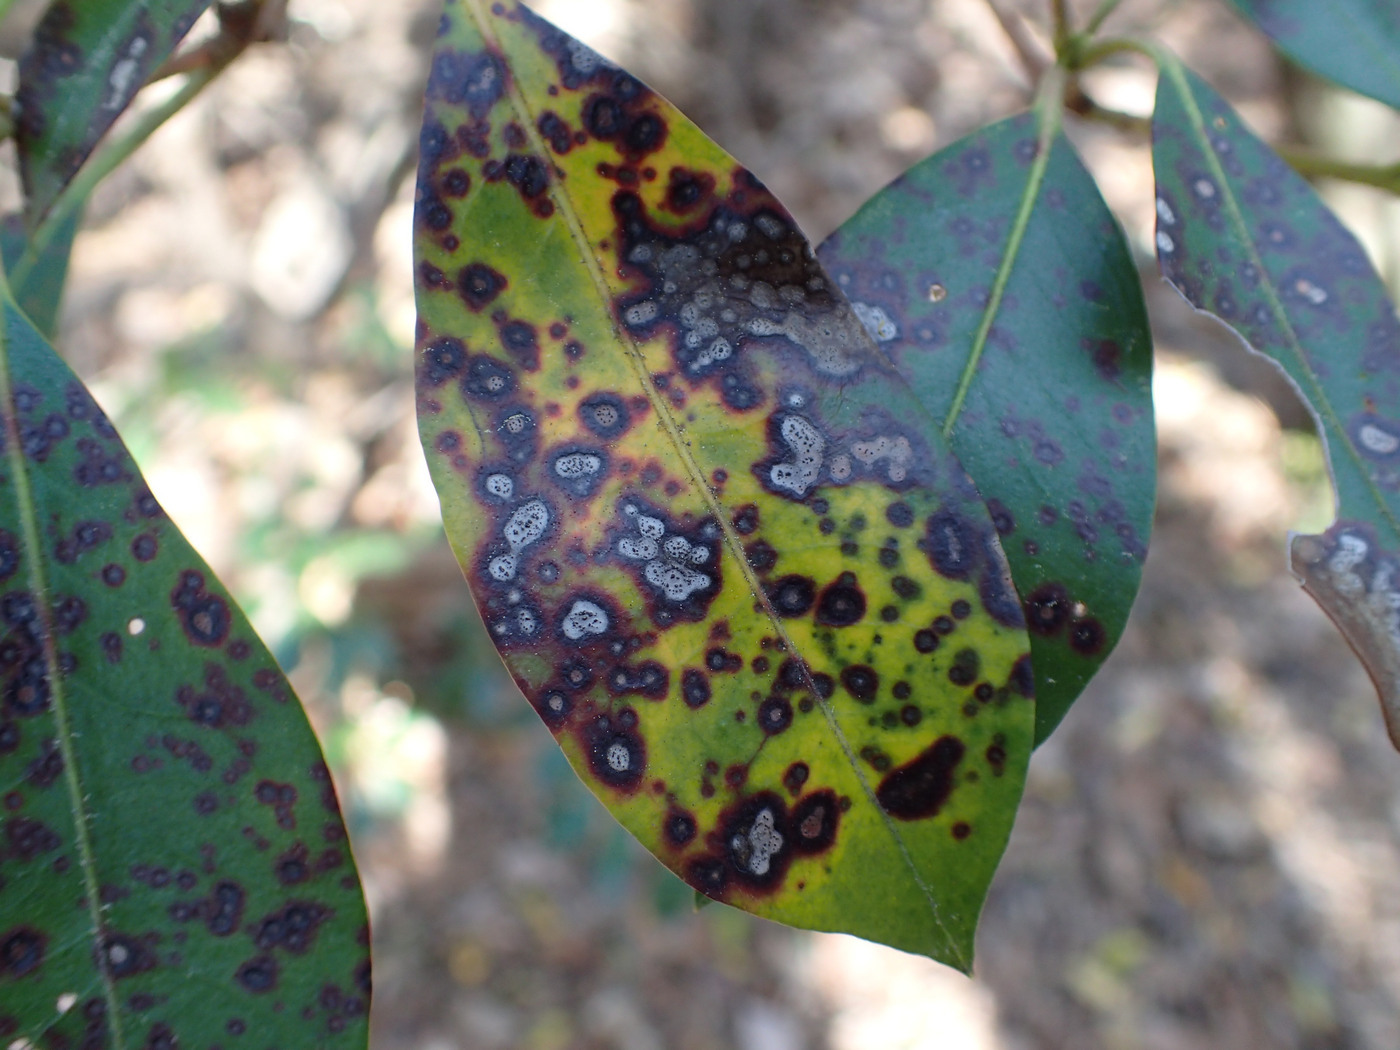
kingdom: Fungi
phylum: Ascomycota
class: Dothideomycetes
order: Mycosphaerellales
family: Mycosphaerellaceae
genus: Mycosphaerella
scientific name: Mycosphaerella colorata
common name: Mountain laurel leaf spot
